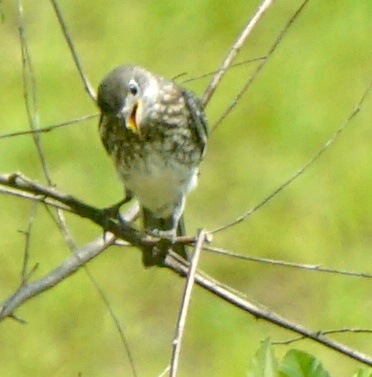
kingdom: Animalia
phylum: Chordata
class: Aves
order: Passeriformes
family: Turdidae
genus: Sialia
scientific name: Sialia sialis
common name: Eastern bluebird
